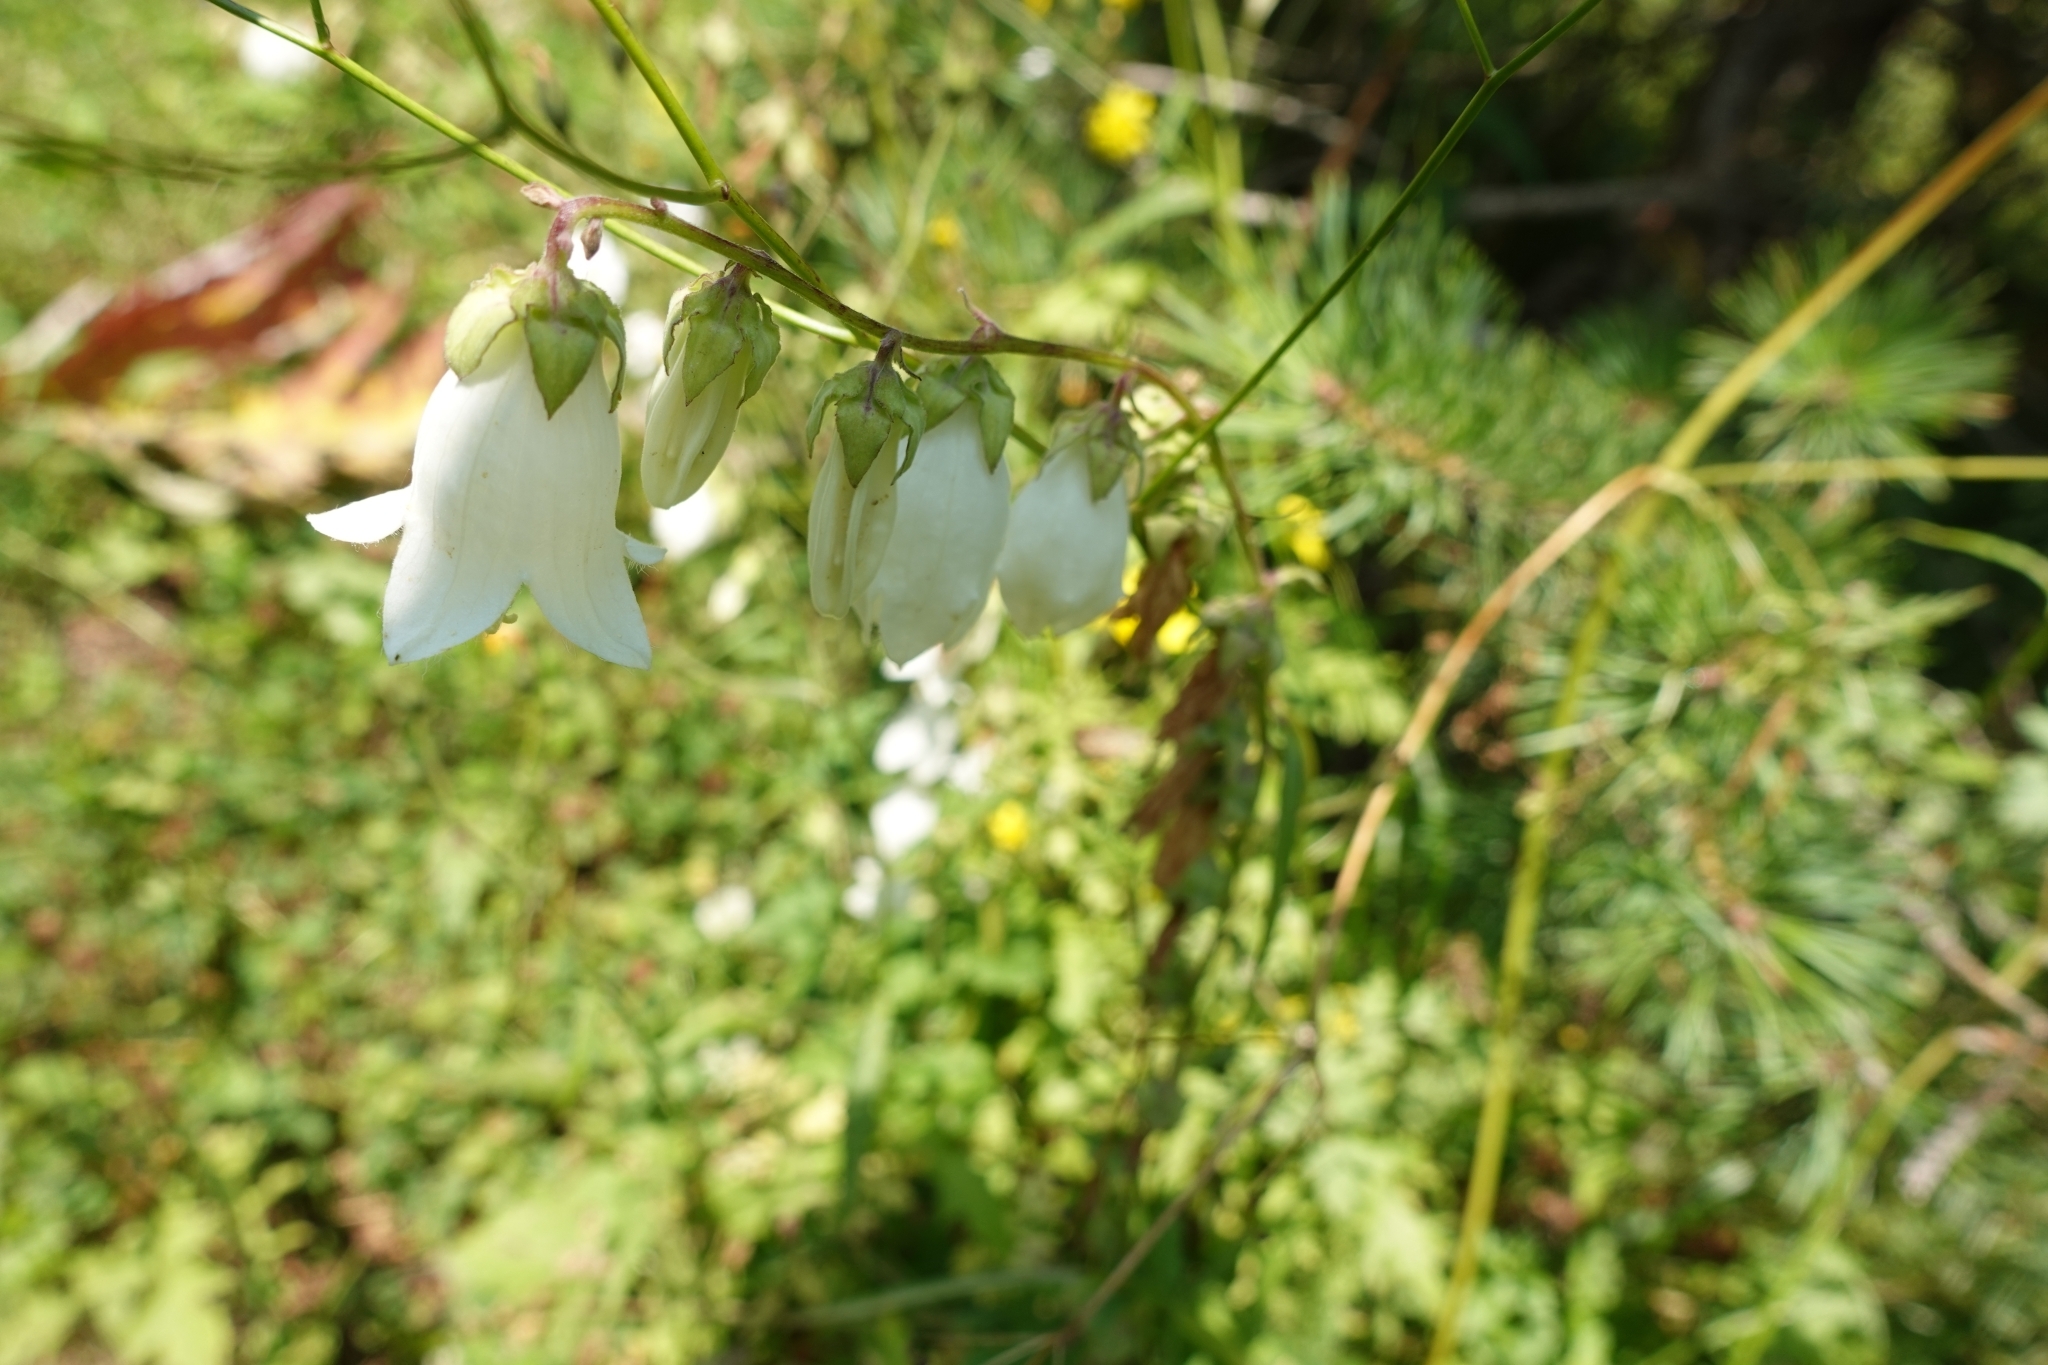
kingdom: Plantae
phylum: Tracheophyta
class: Magnoliopsida
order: Asterales
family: Campanulaceae
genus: Campanula
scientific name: Campanula alliariifolia
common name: Cornish bellflower
